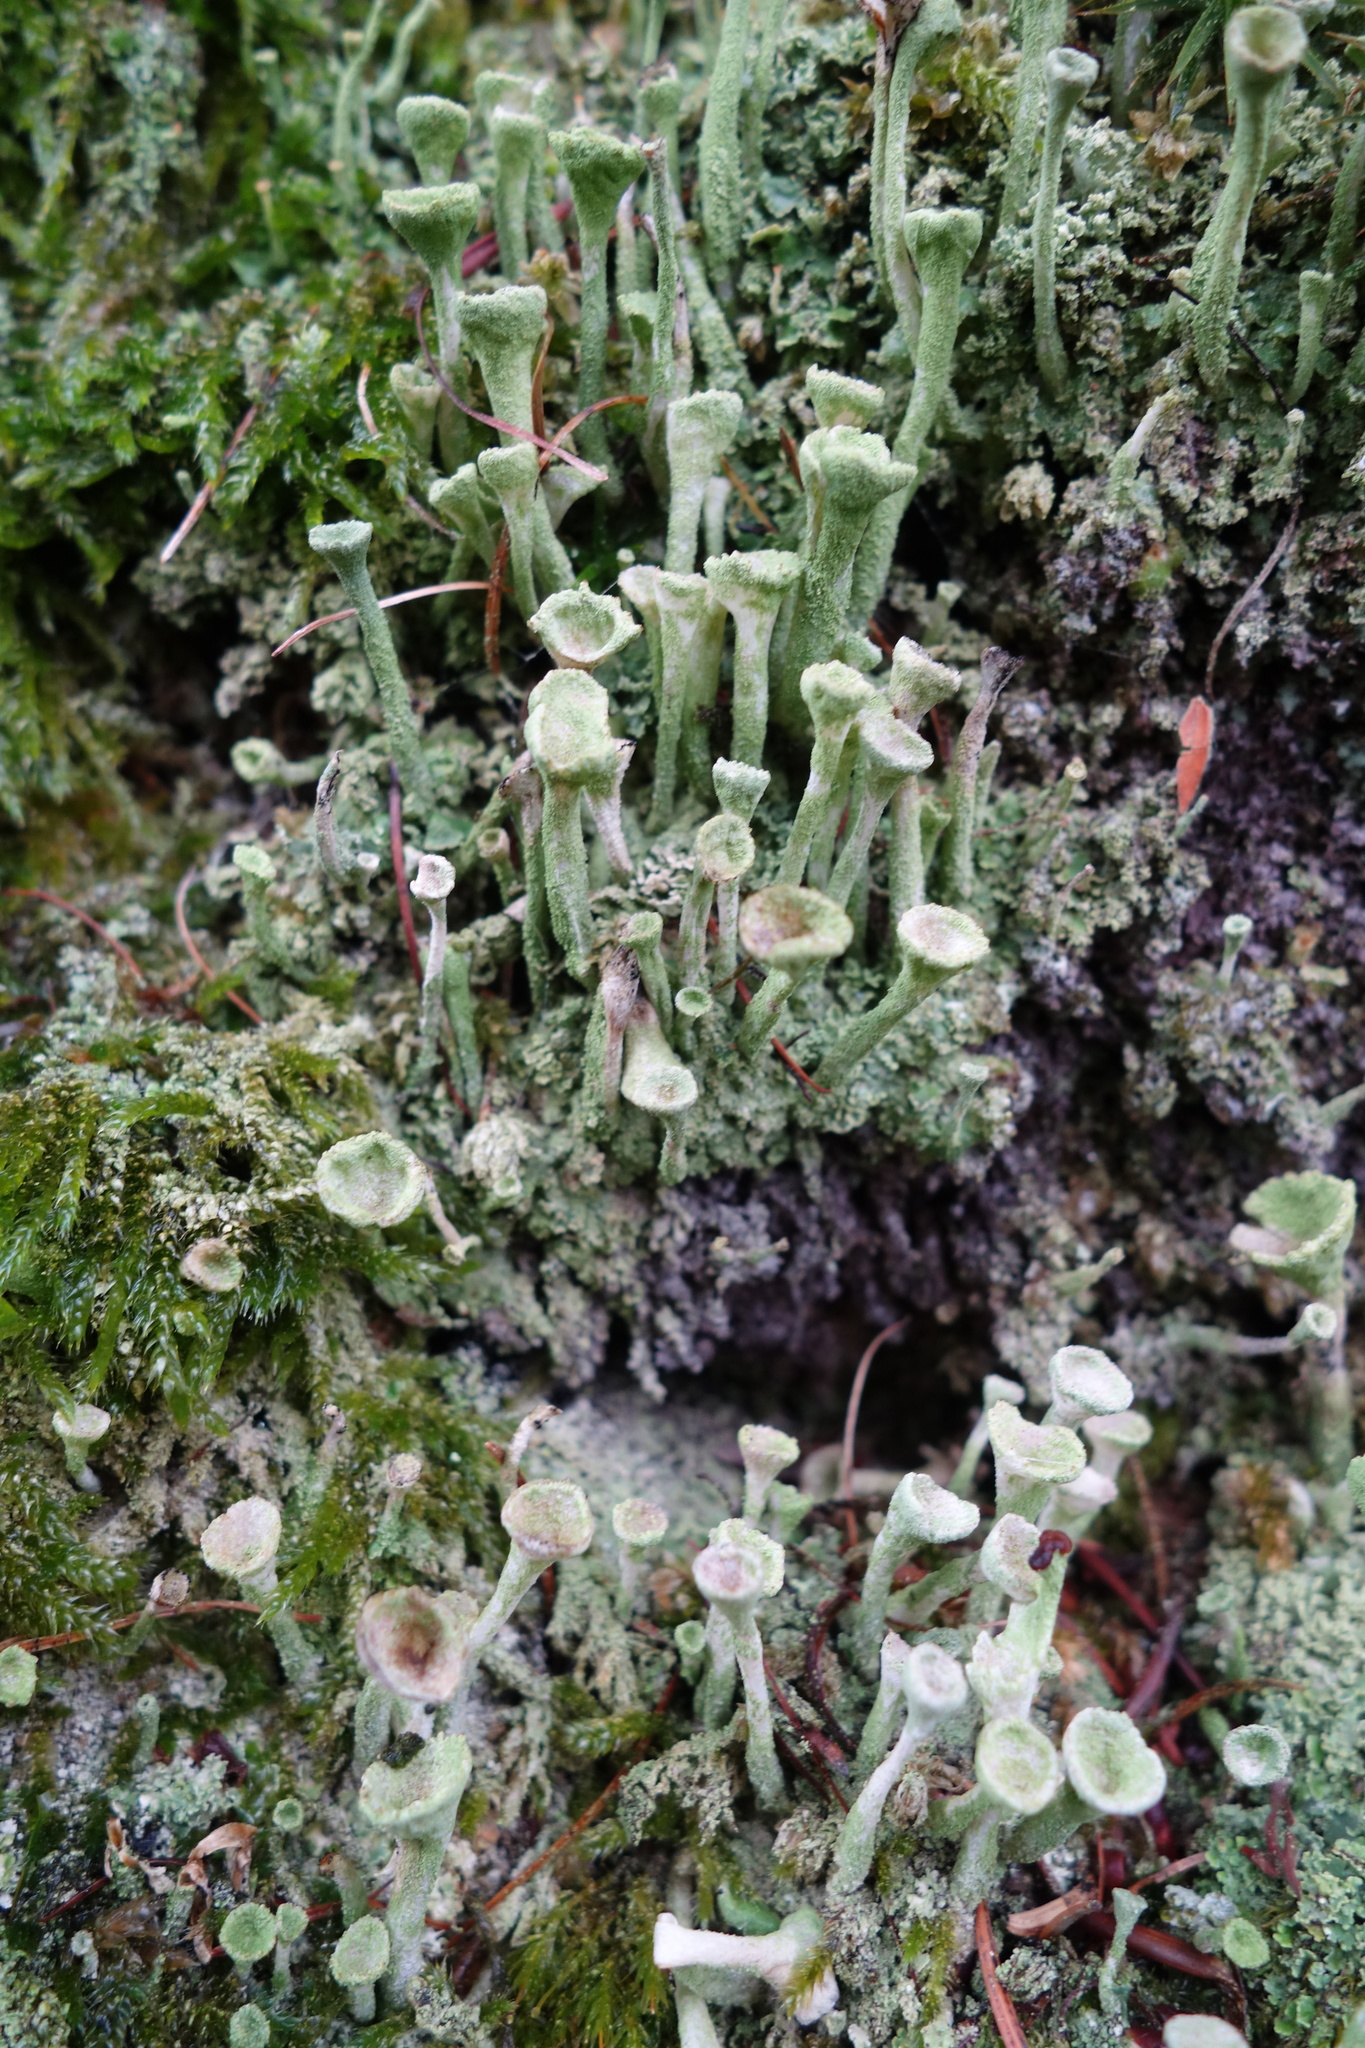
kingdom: Fungi
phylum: Ascomycota
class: Lecanoromycetes
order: Lecanorales
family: Cladoniaceae
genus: Cladonia
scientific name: Cladonia fimbriata
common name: Powdered trumpet lichen
